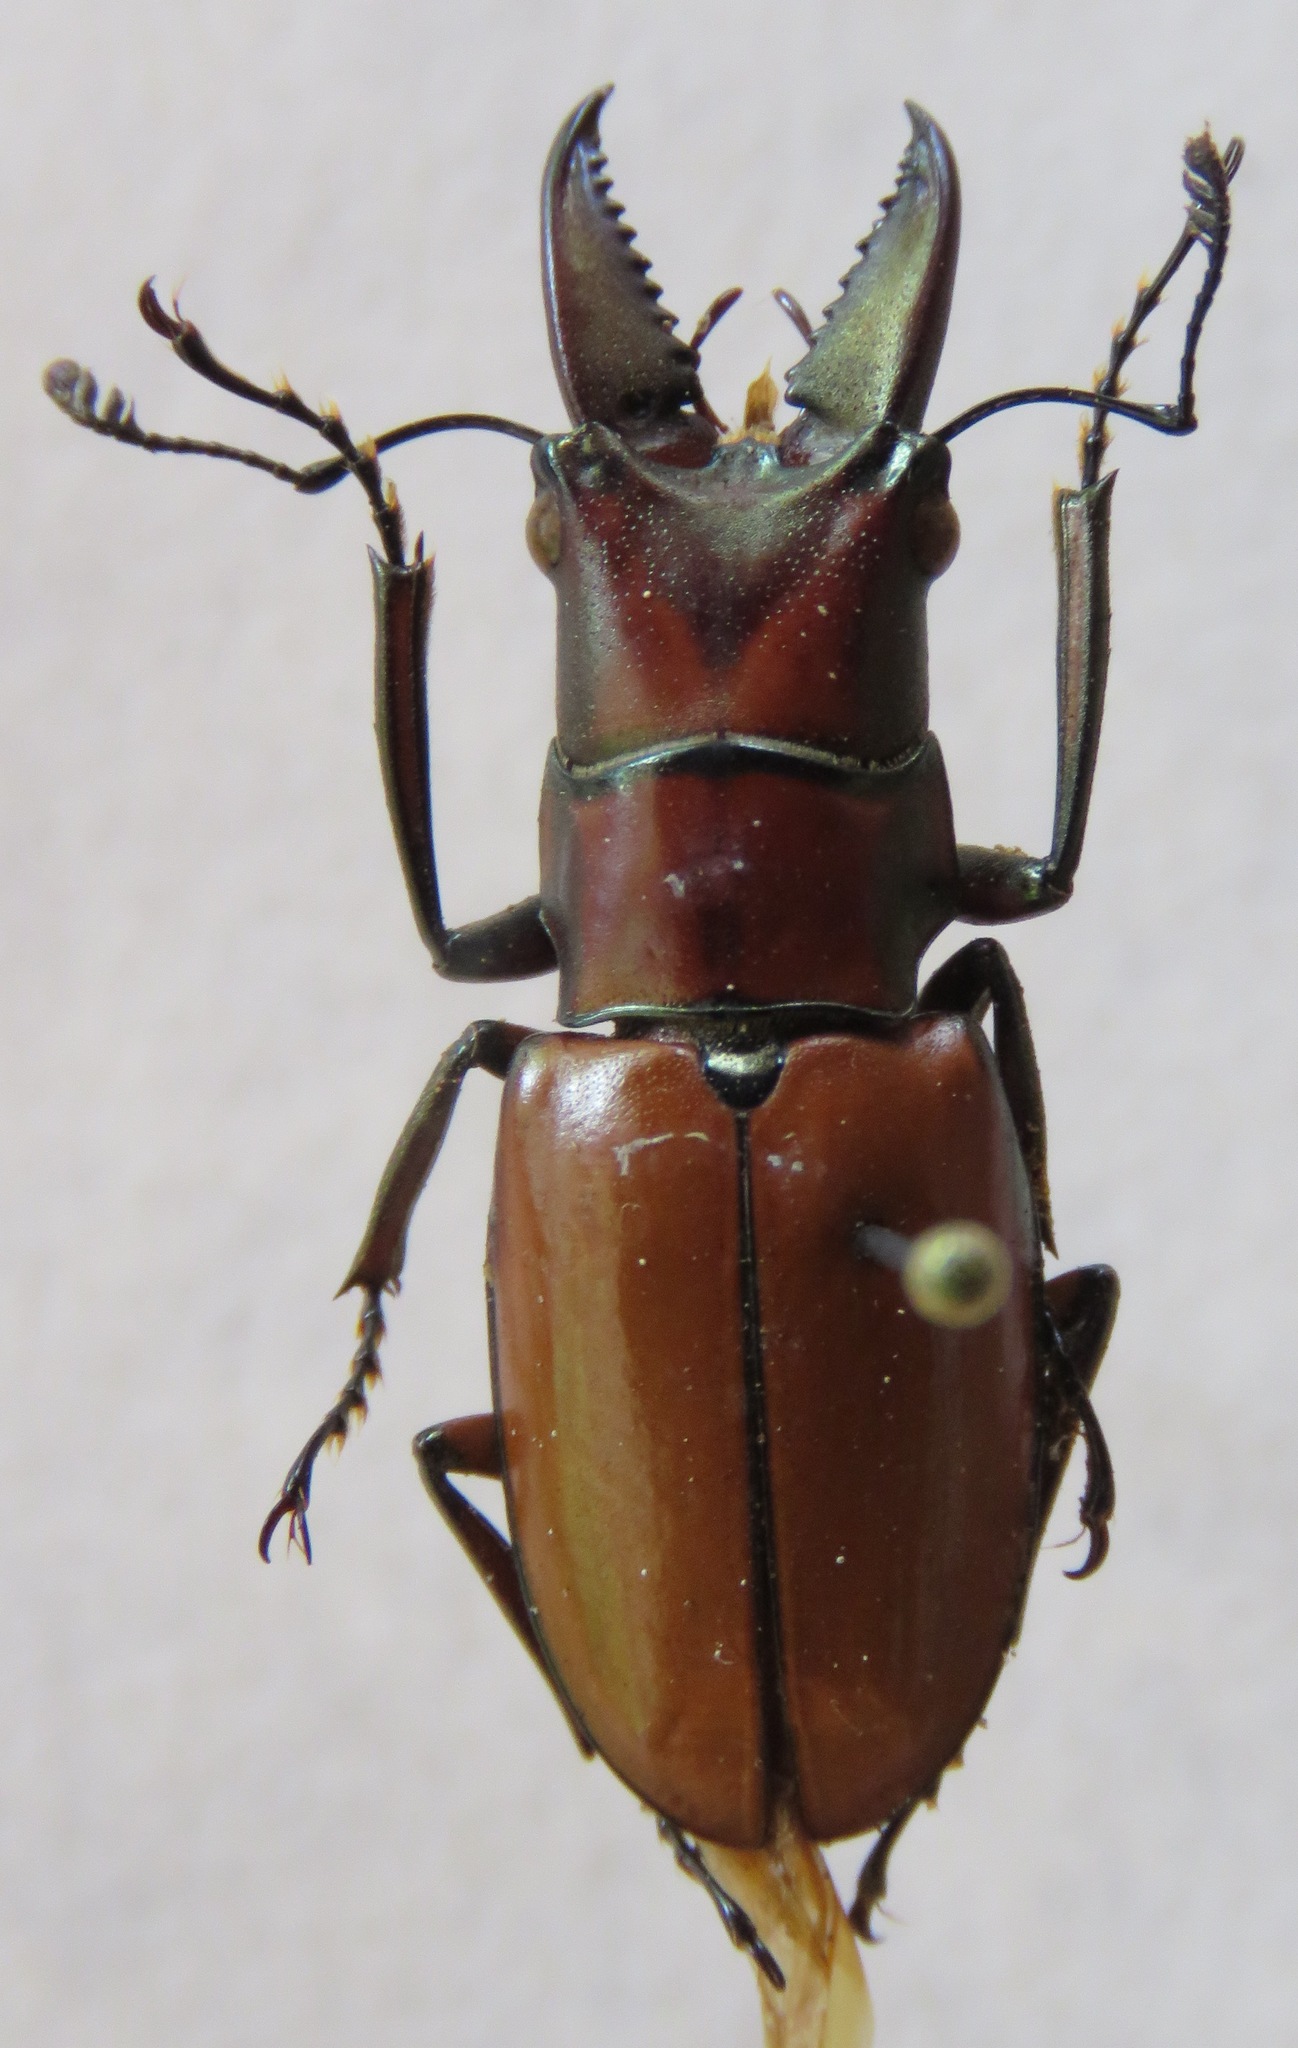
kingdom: Animalia
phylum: Arthropoda
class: Insecta
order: Coleoptera
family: Lucanidae
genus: Cyclommatinus
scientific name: Cyclommatinus strigiceps
